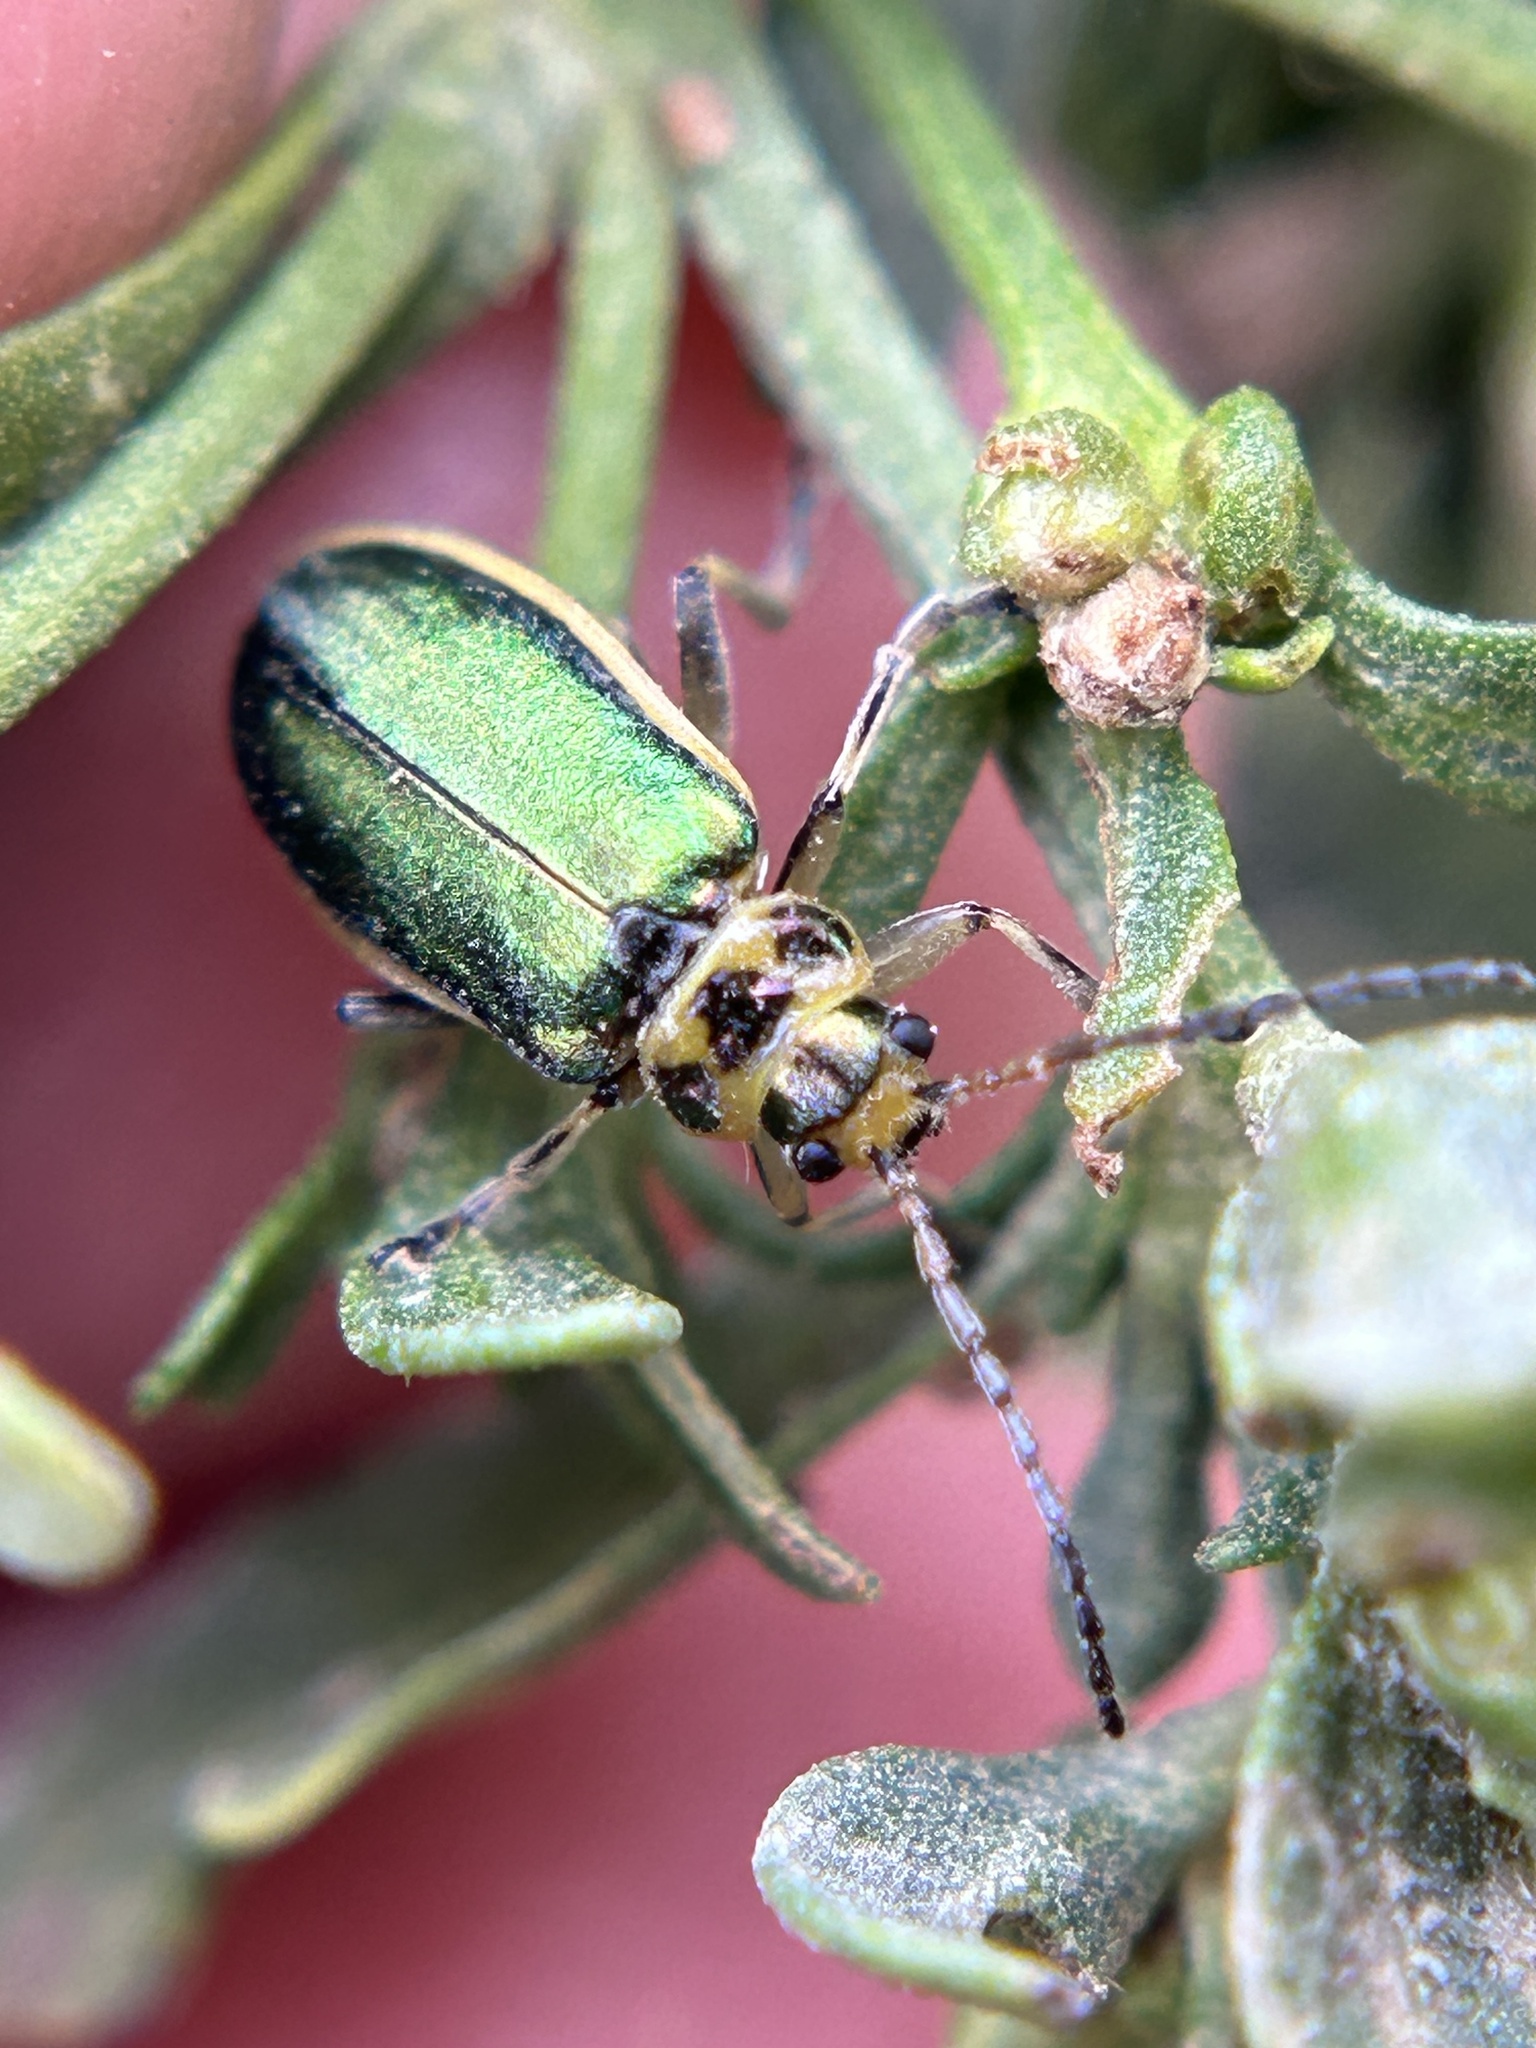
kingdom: Animalia
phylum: Arthropoda
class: Insecta
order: Coleoptera
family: Chrysomelidae
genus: Trirhabda
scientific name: Trirhabda flavolimbata
